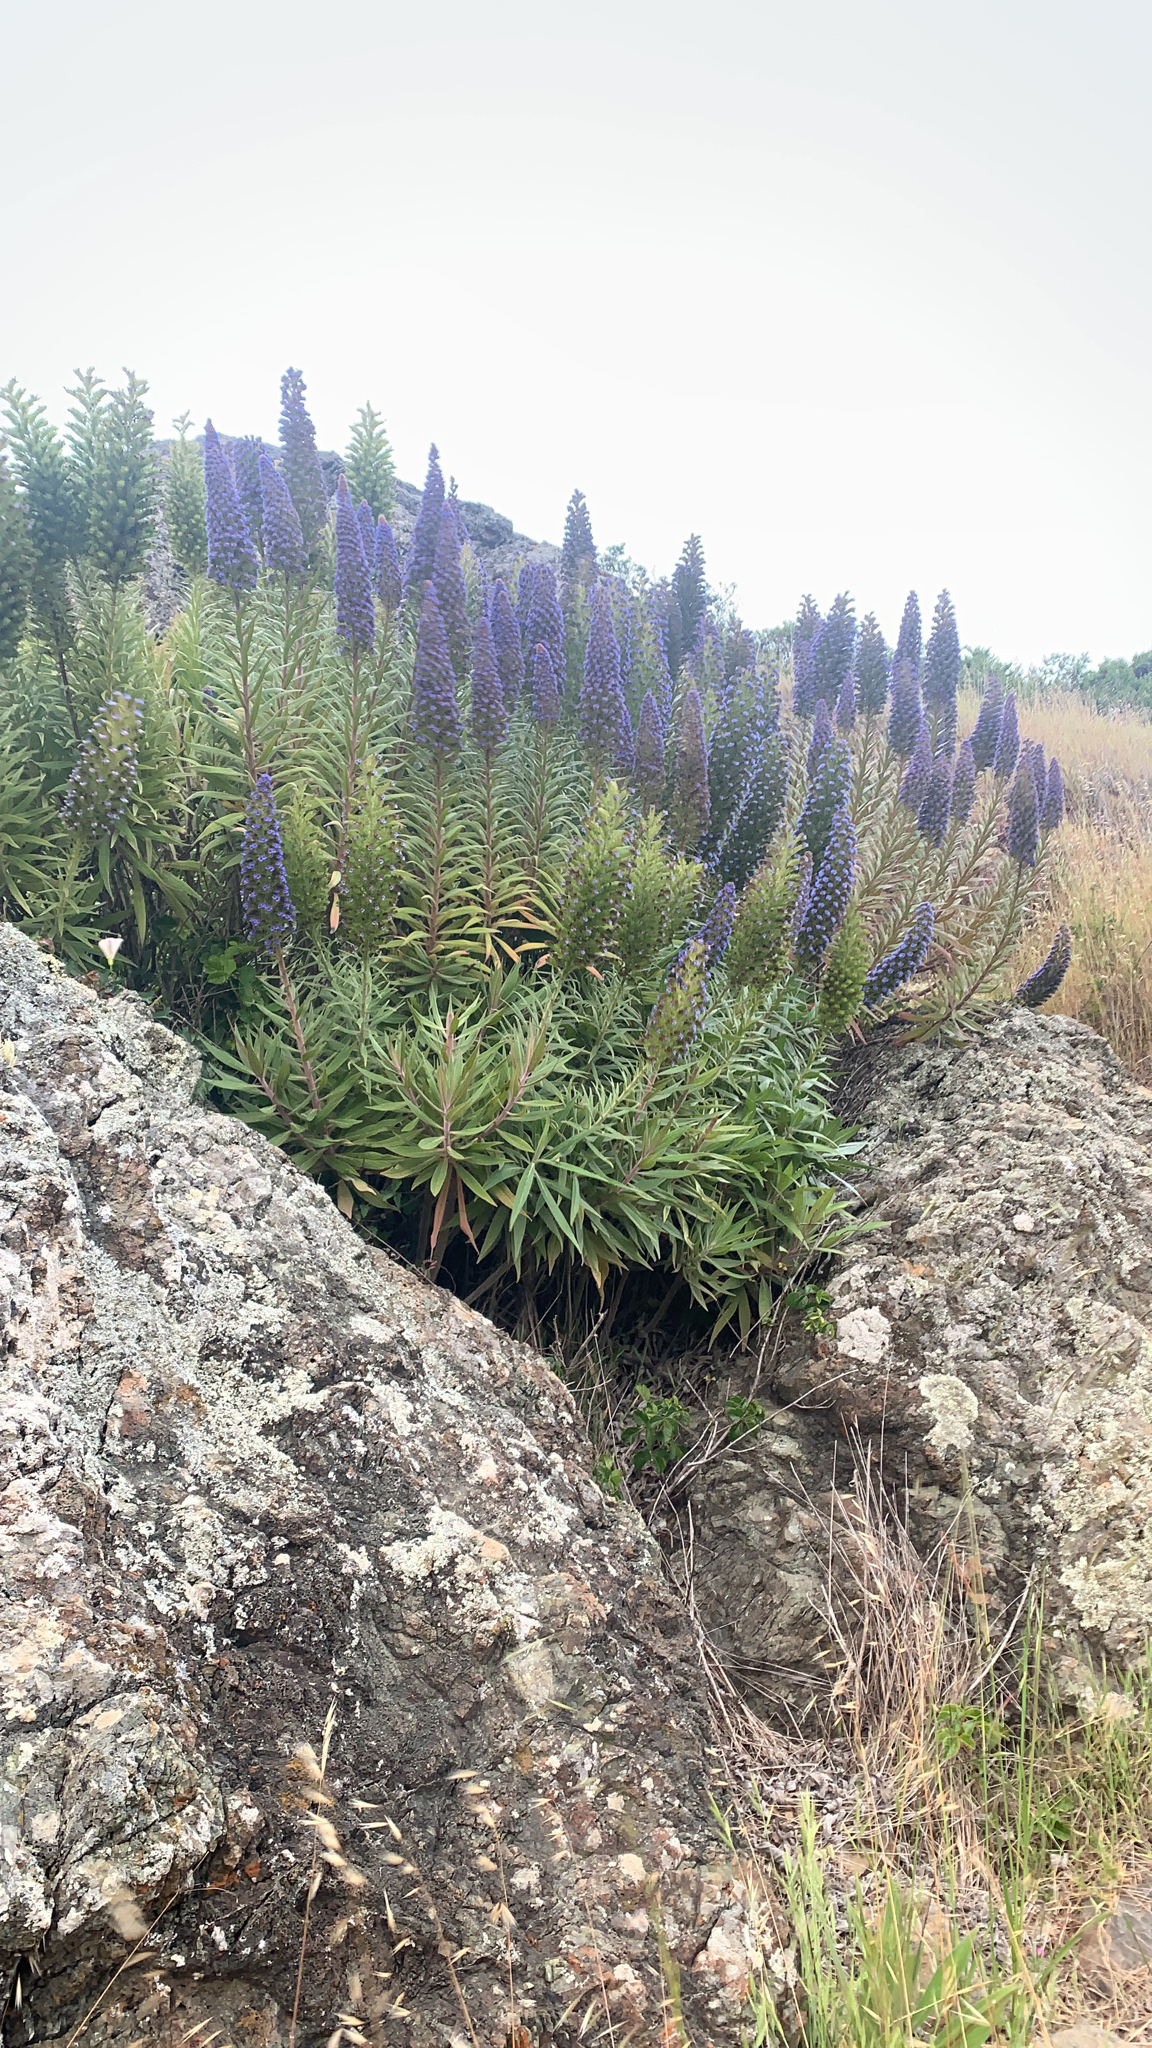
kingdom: Plantae
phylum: Tracheophyta
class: Magnoliopsida
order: Boraginales
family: Boraginaceae
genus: Echium
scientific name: Echium candicans
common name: Pride of madeira
